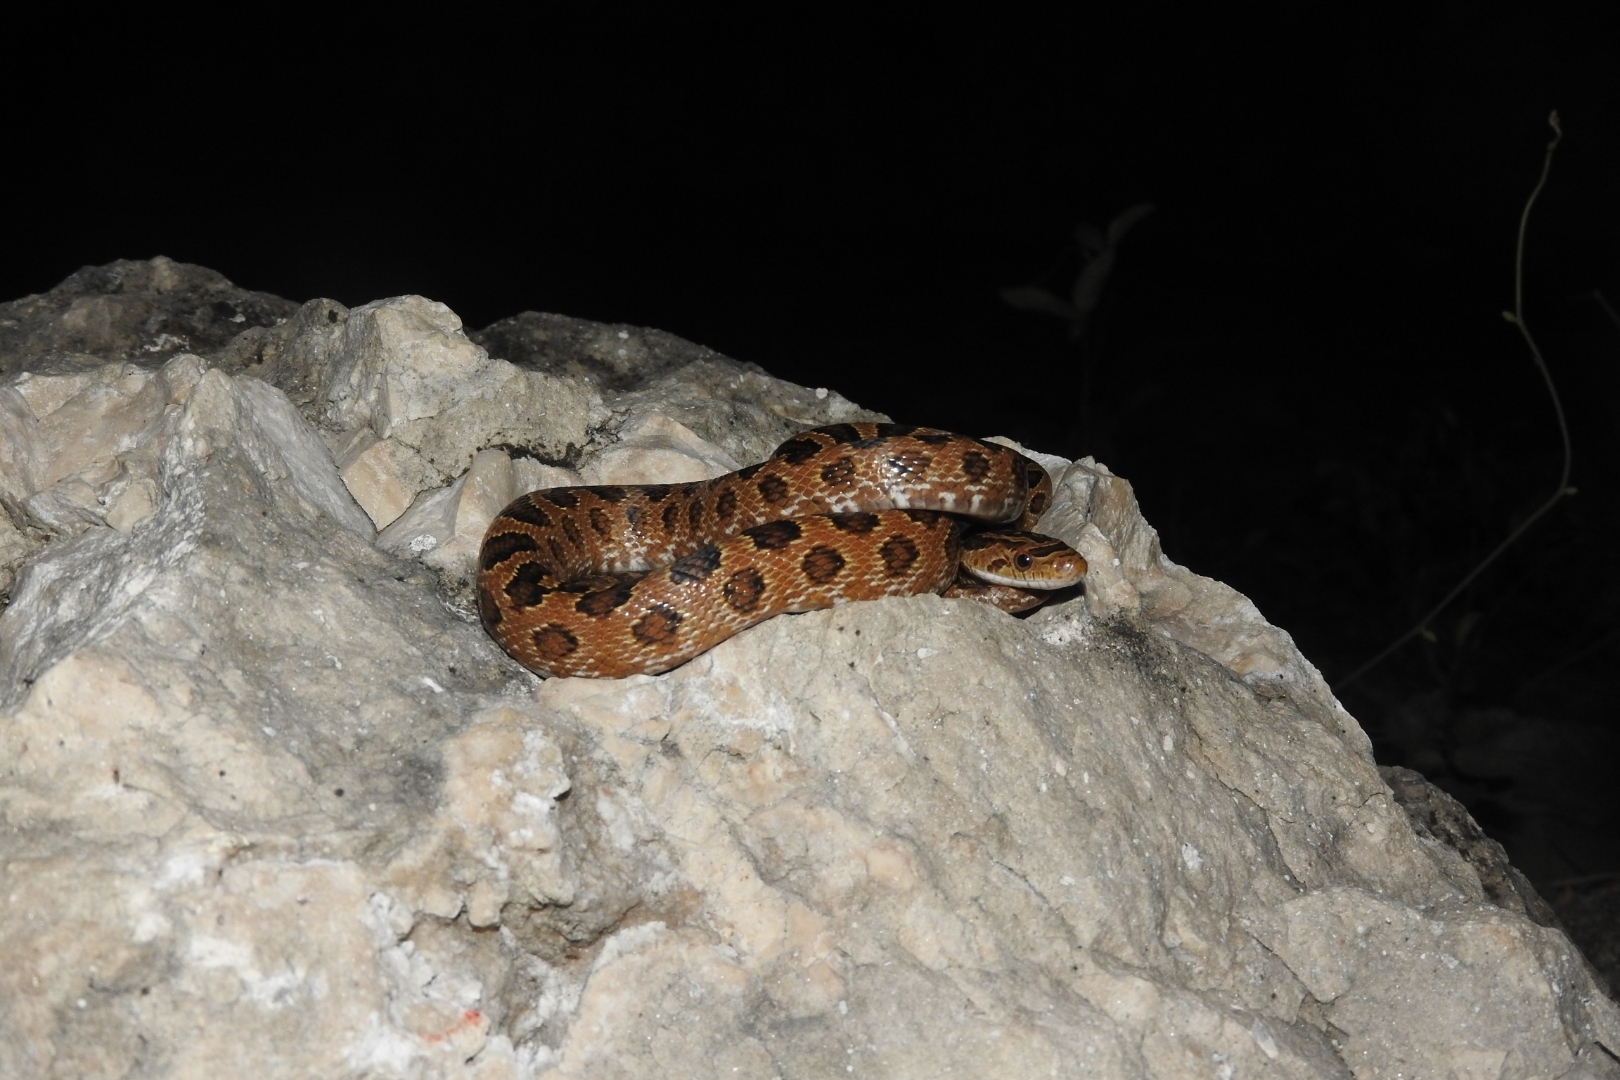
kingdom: Animalia
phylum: Chordata
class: Squamata
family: Colubridae
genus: Senticolis
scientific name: Senticolis triaspis
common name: Green rat snake
